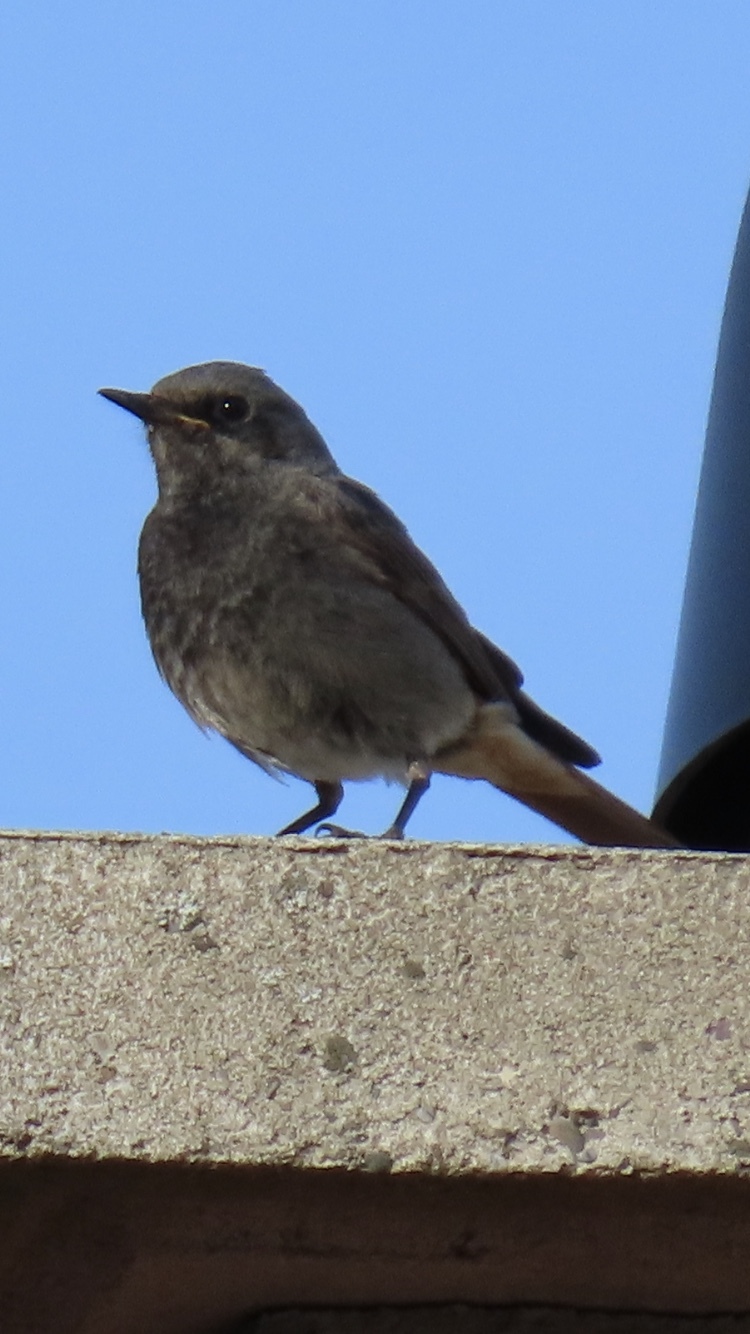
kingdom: Animalia
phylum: Chordata
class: Aves
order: Passeriformes
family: Muscicapidae
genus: Phoenicurus
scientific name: Phoenicurus ochruros
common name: Black redstart
